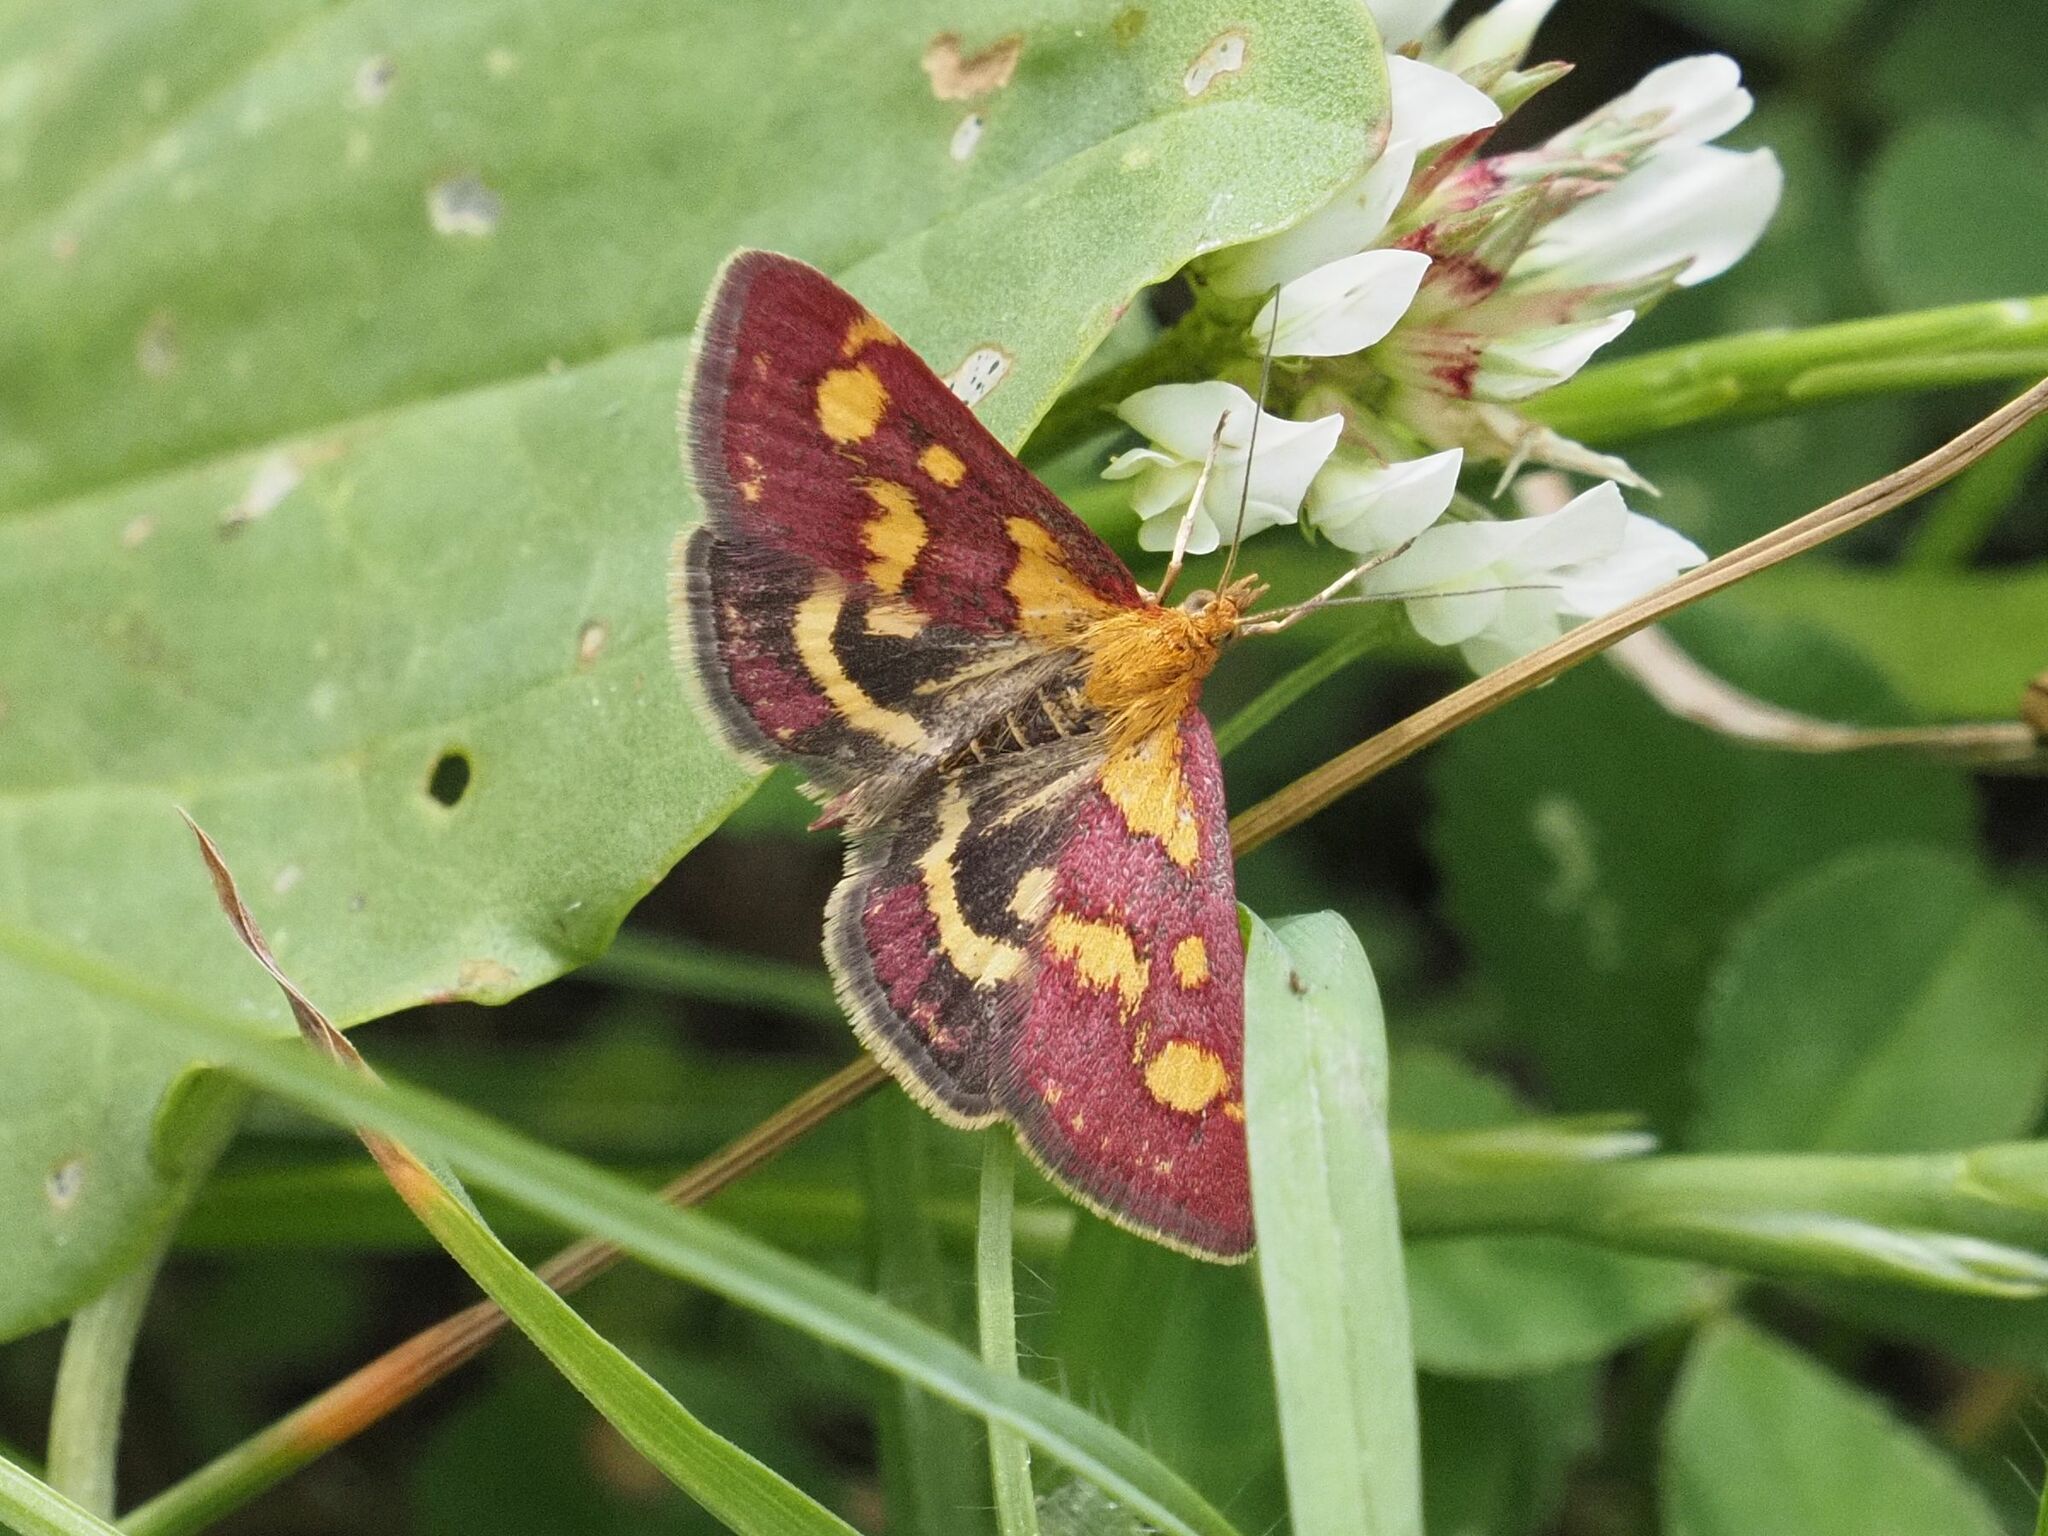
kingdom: Animalia
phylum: Arthropoda
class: Insecta
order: Lepidoptera
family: Crambidae
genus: Pyrausta
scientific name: Pyrausta purpuralis
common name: Common purple & gold
